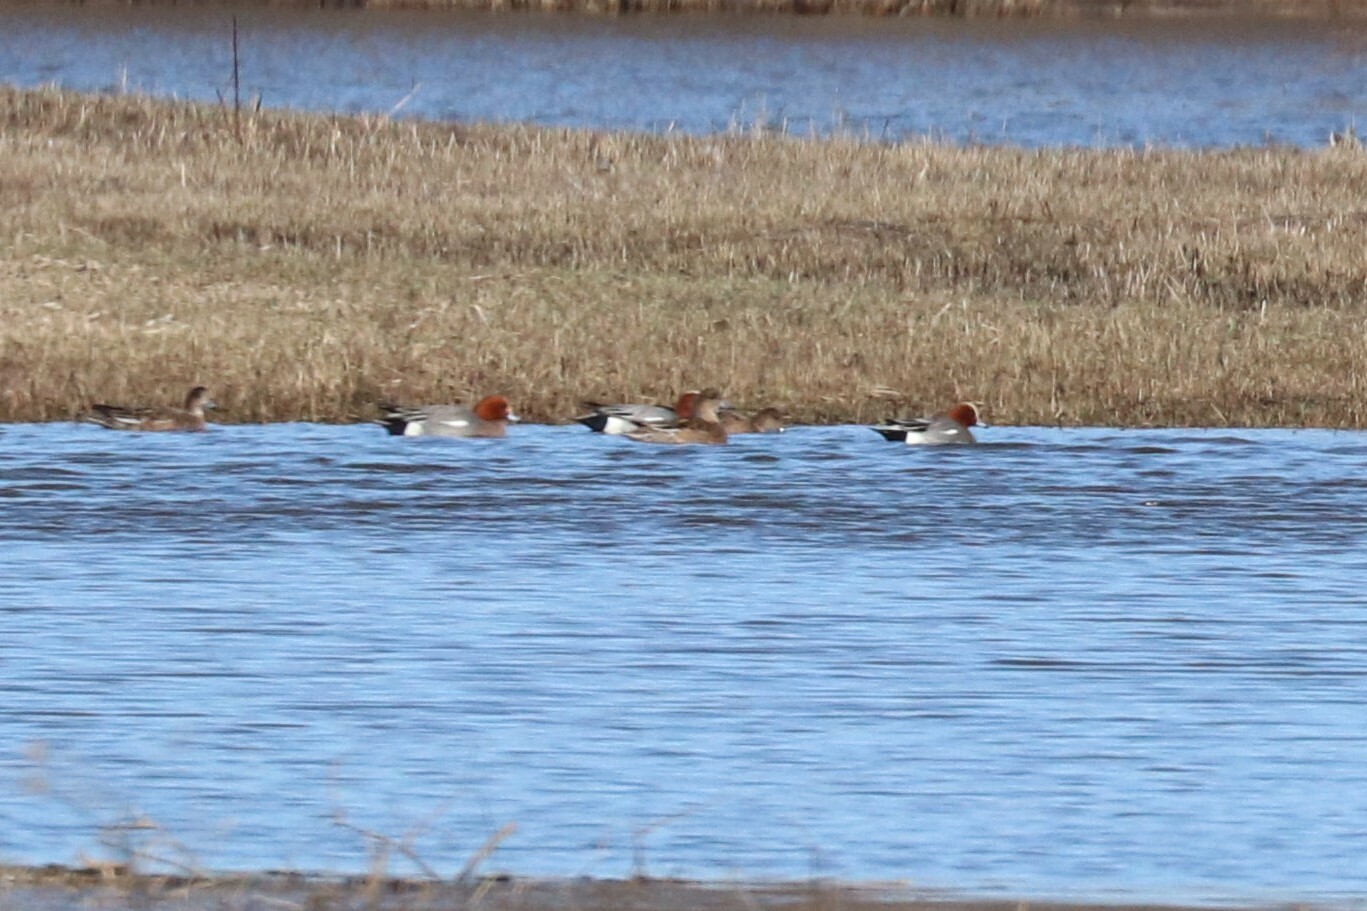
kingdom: Animalia
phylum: Chordata
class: Aves
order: Anseriformes
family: Anatidae
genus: Mareca
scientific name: Mareca penelope
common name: Eurasian wigeon
